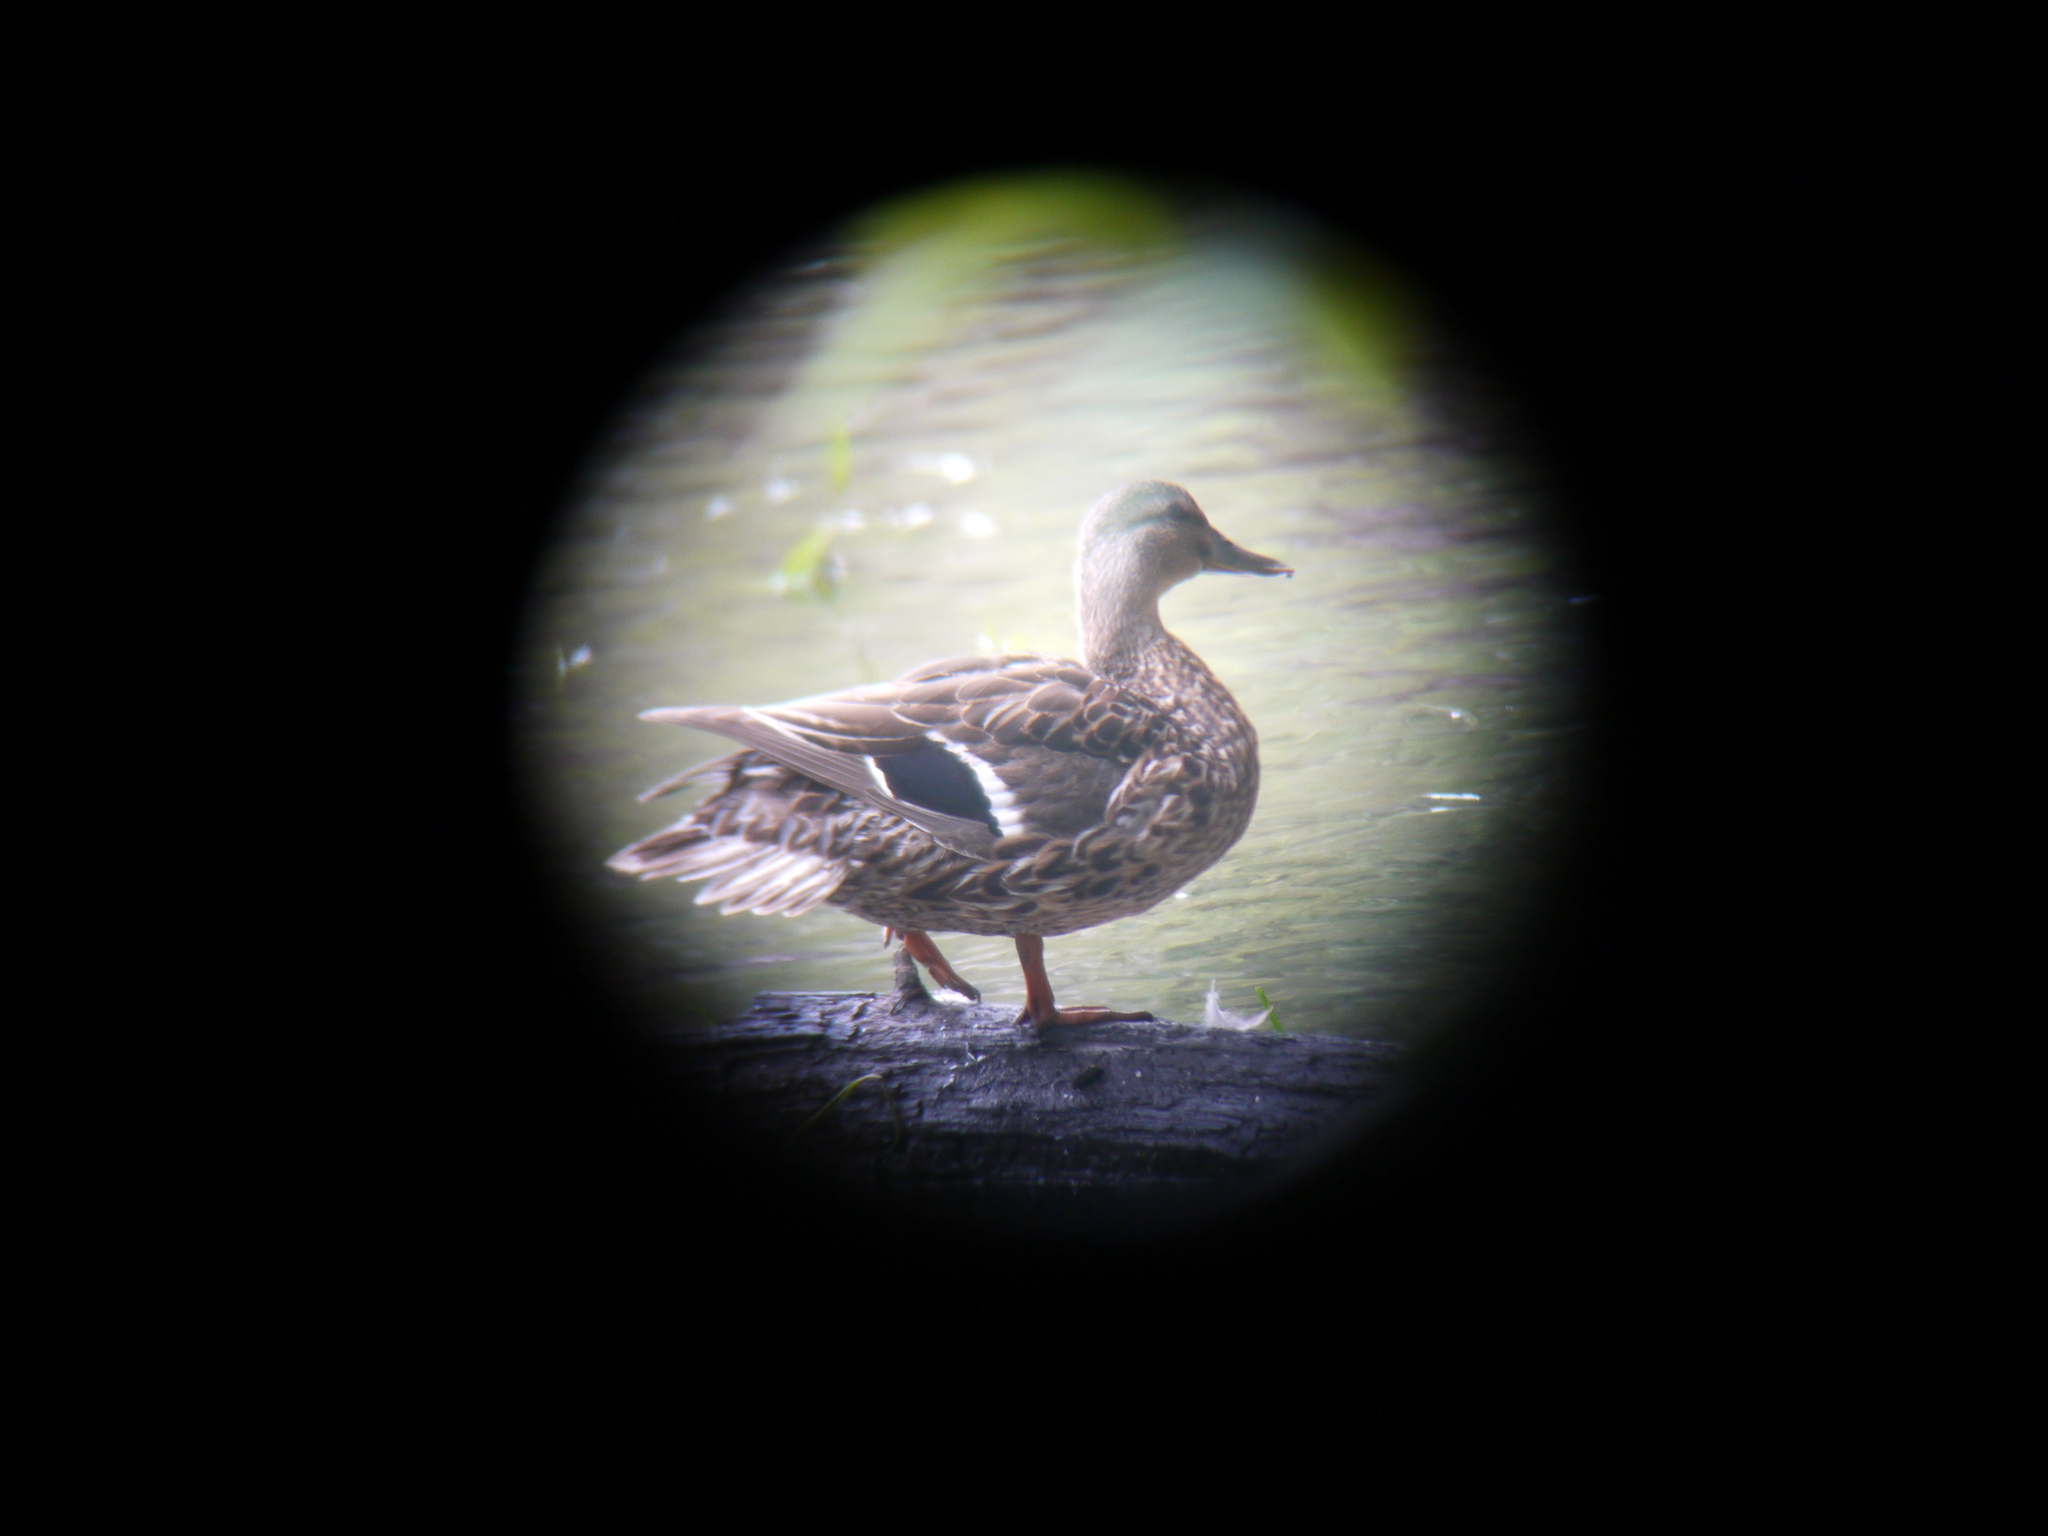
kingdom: Animalia
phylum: Chordata
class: Aves
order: Anseriformes
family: Anatidae
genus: Anas
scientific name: Anas platyrhynchos
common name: Mallard
